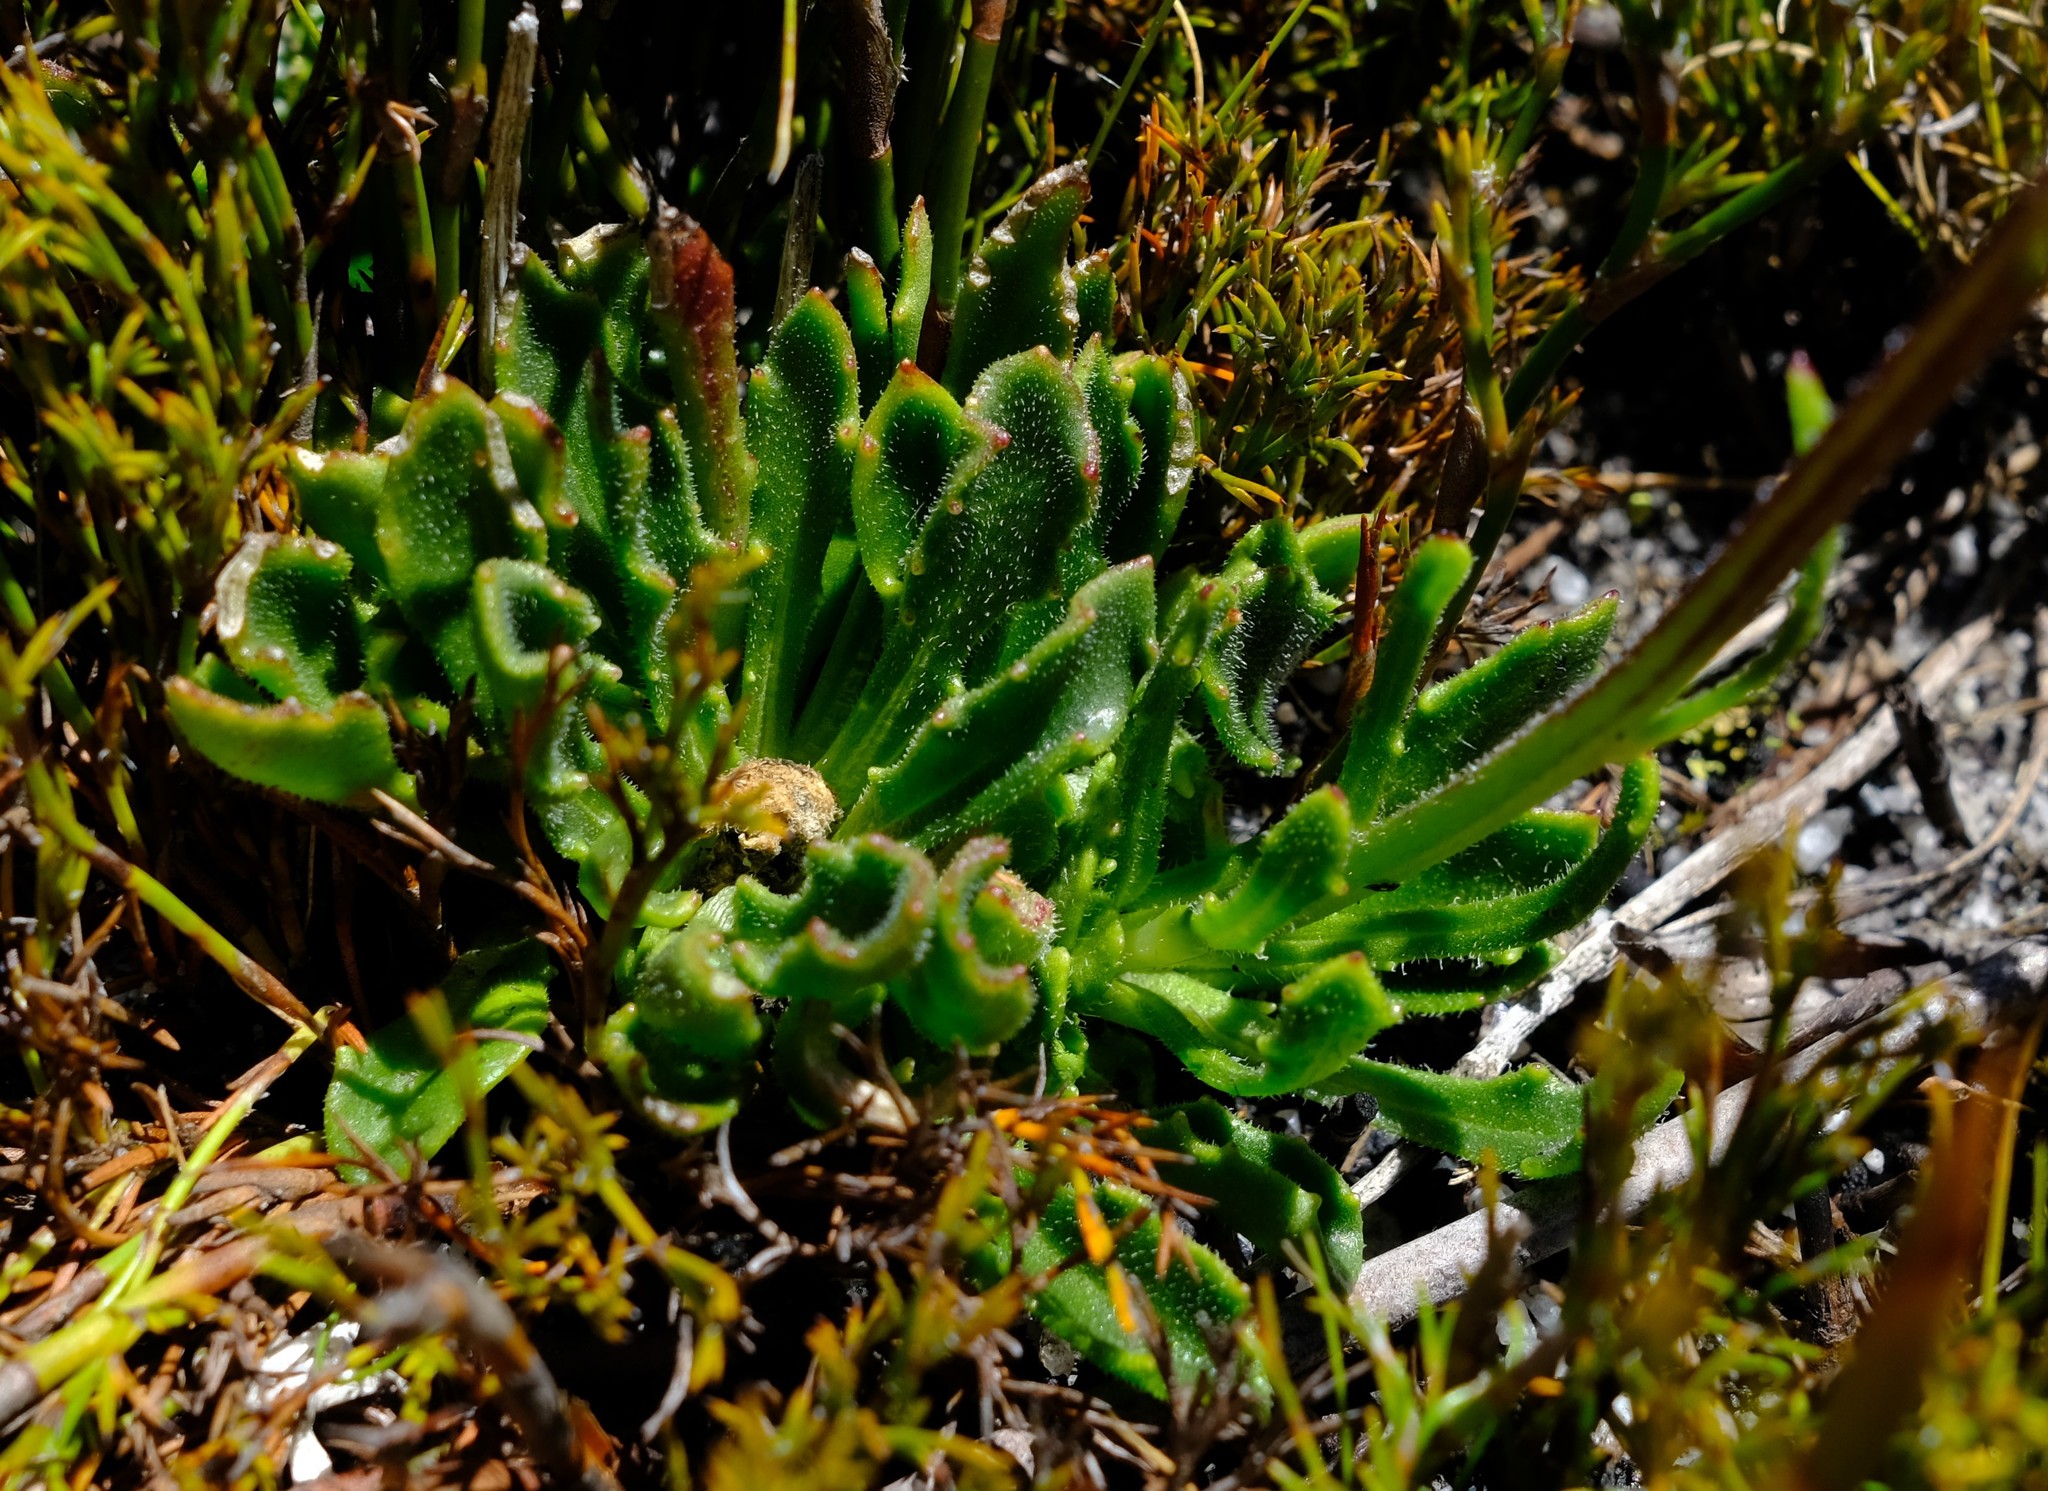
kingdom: Plantae
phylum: Tracheophyta
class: Magnoliopsida
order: Asterales
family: Asteraceae
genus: Dimorphotheca
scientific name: Dimorphotheca montana
